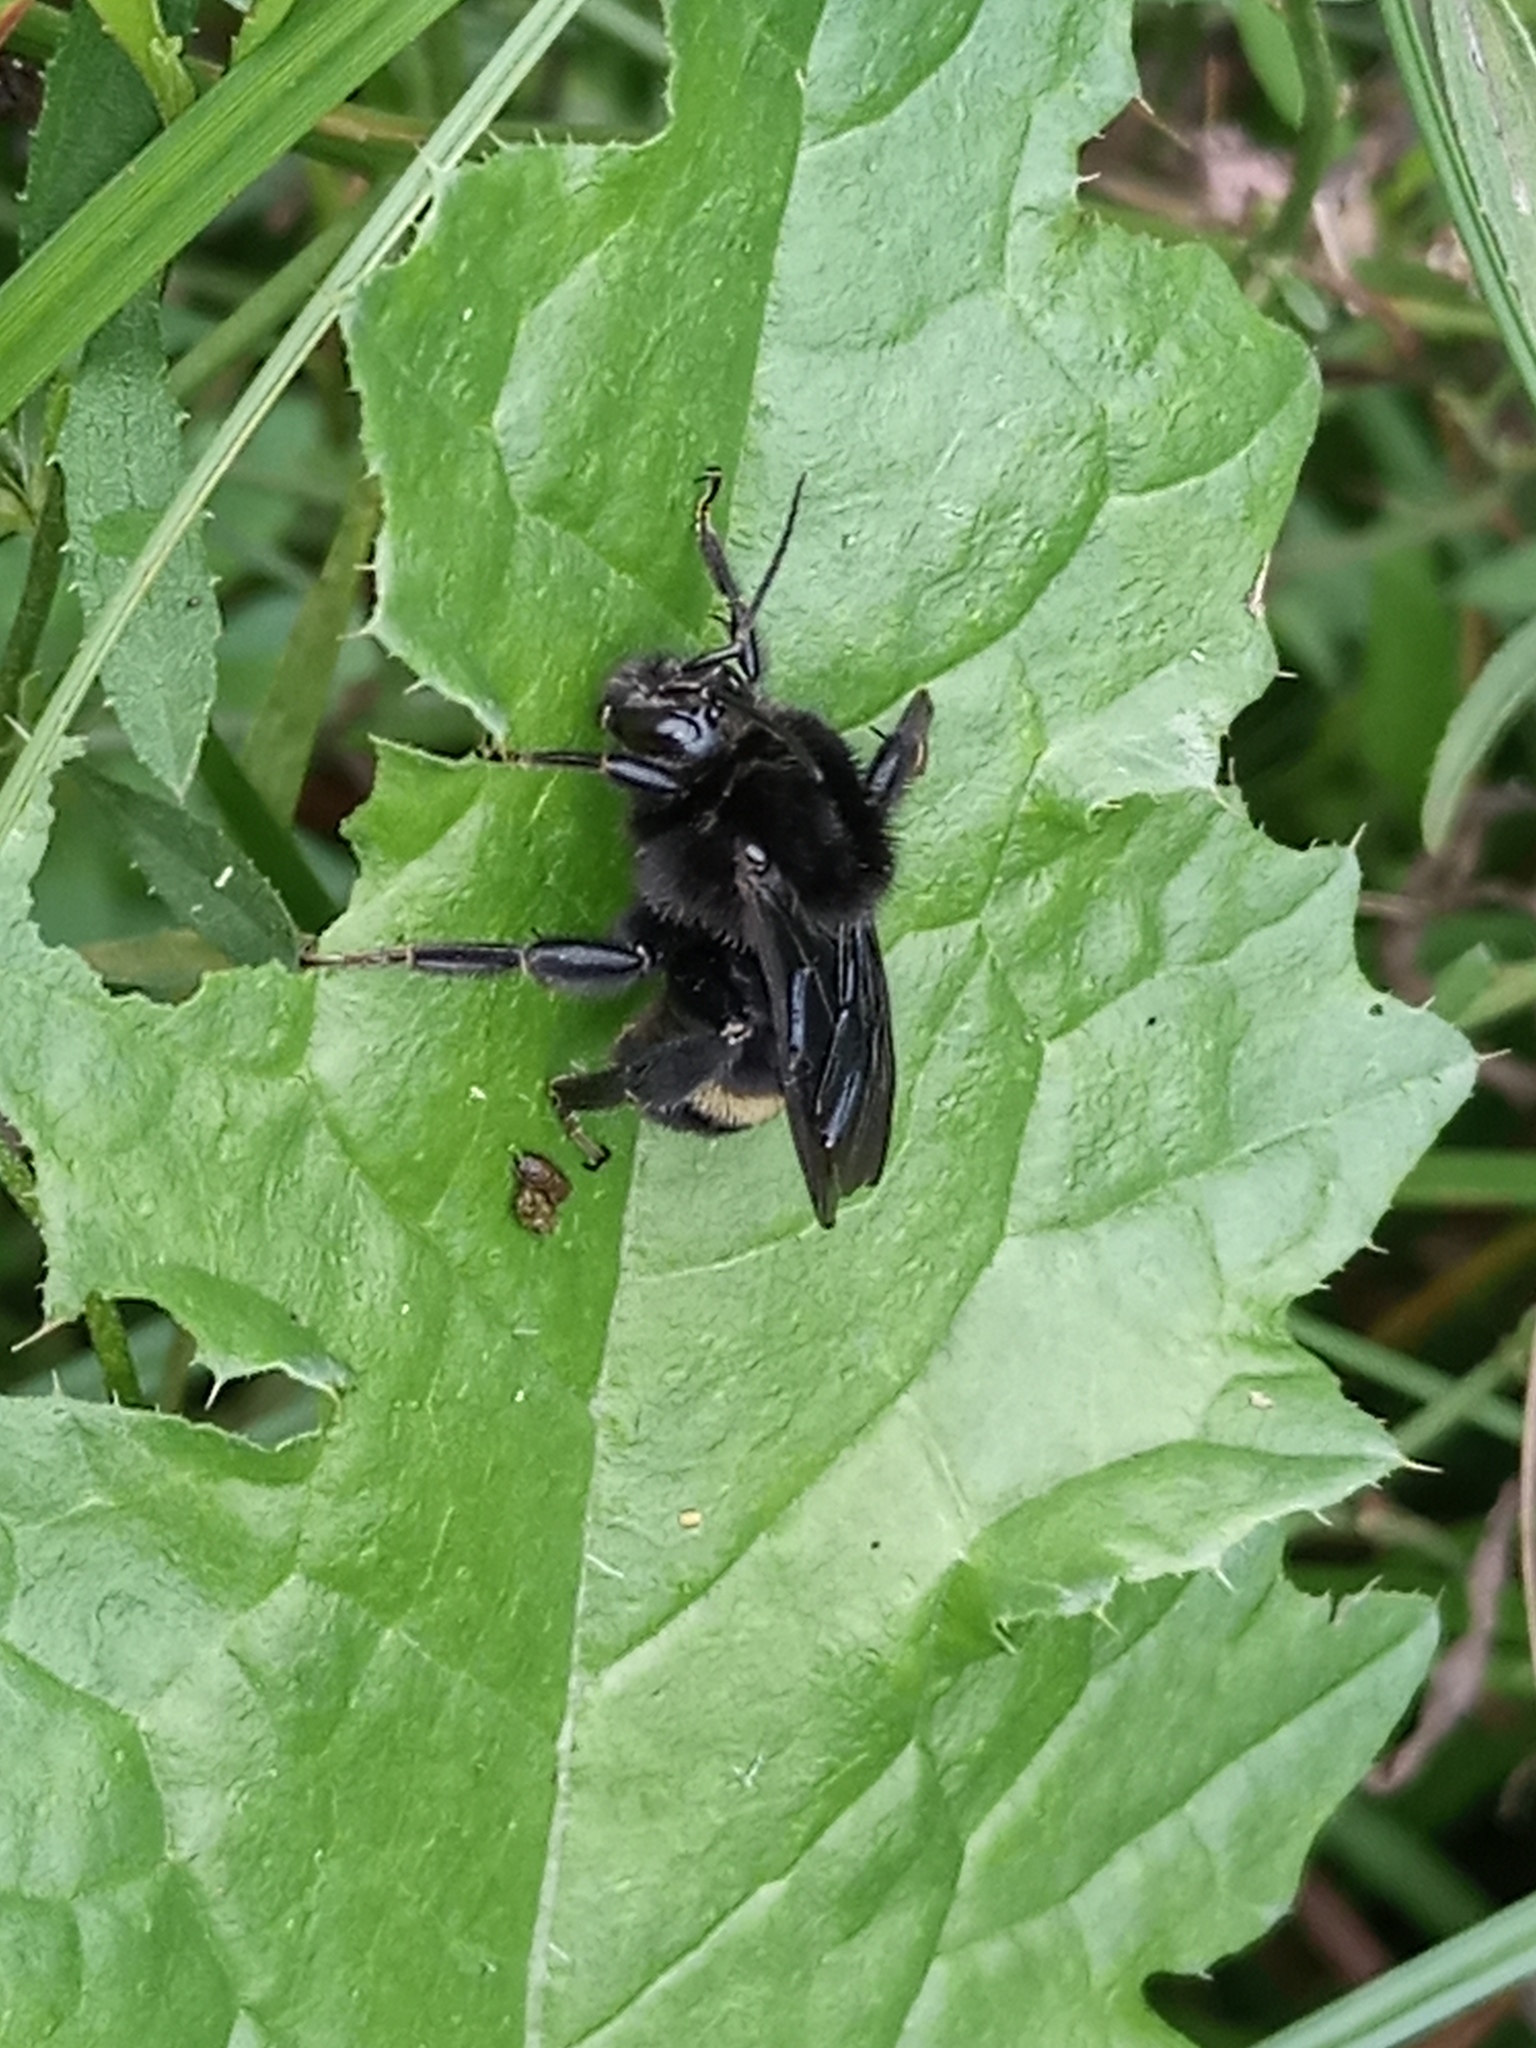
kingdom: Animalia
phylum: Arthropoda
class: Insecta
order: Hymenoptera
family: Apidae
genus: Bombus
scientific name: Bombus pauloensis
